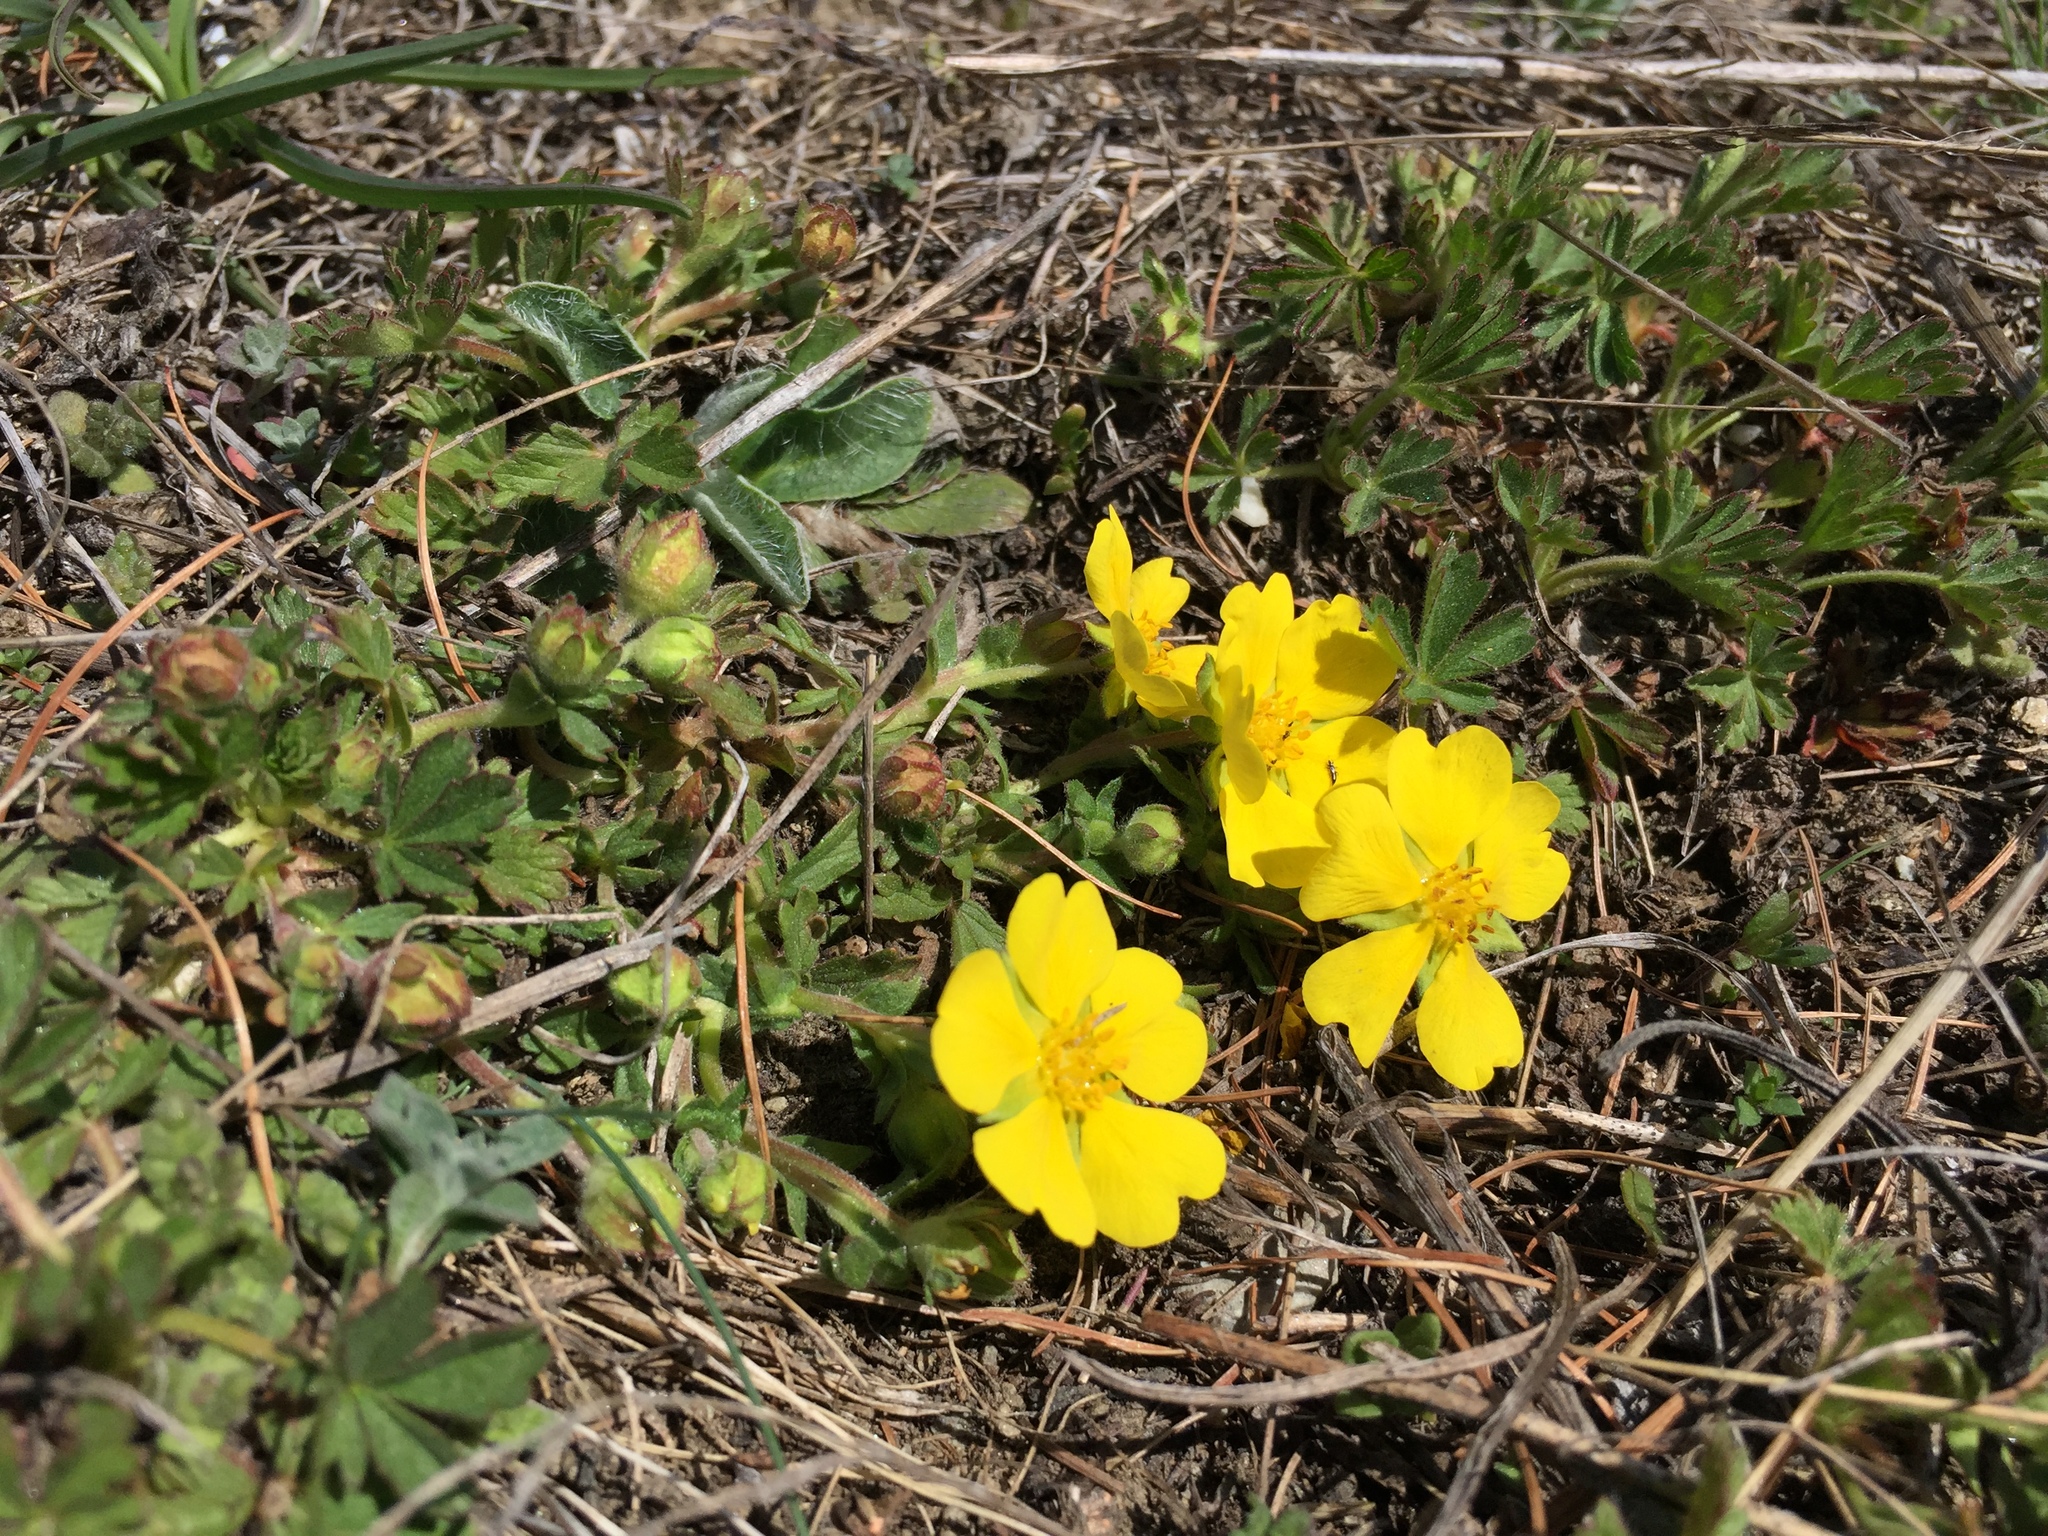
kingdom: Plantae
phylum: Tracheophyta
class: Magnoliopsida
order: Rosales
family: Rosaceae
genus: Potentilla
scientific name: Potentilla verna
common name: Spring cinquefoil
